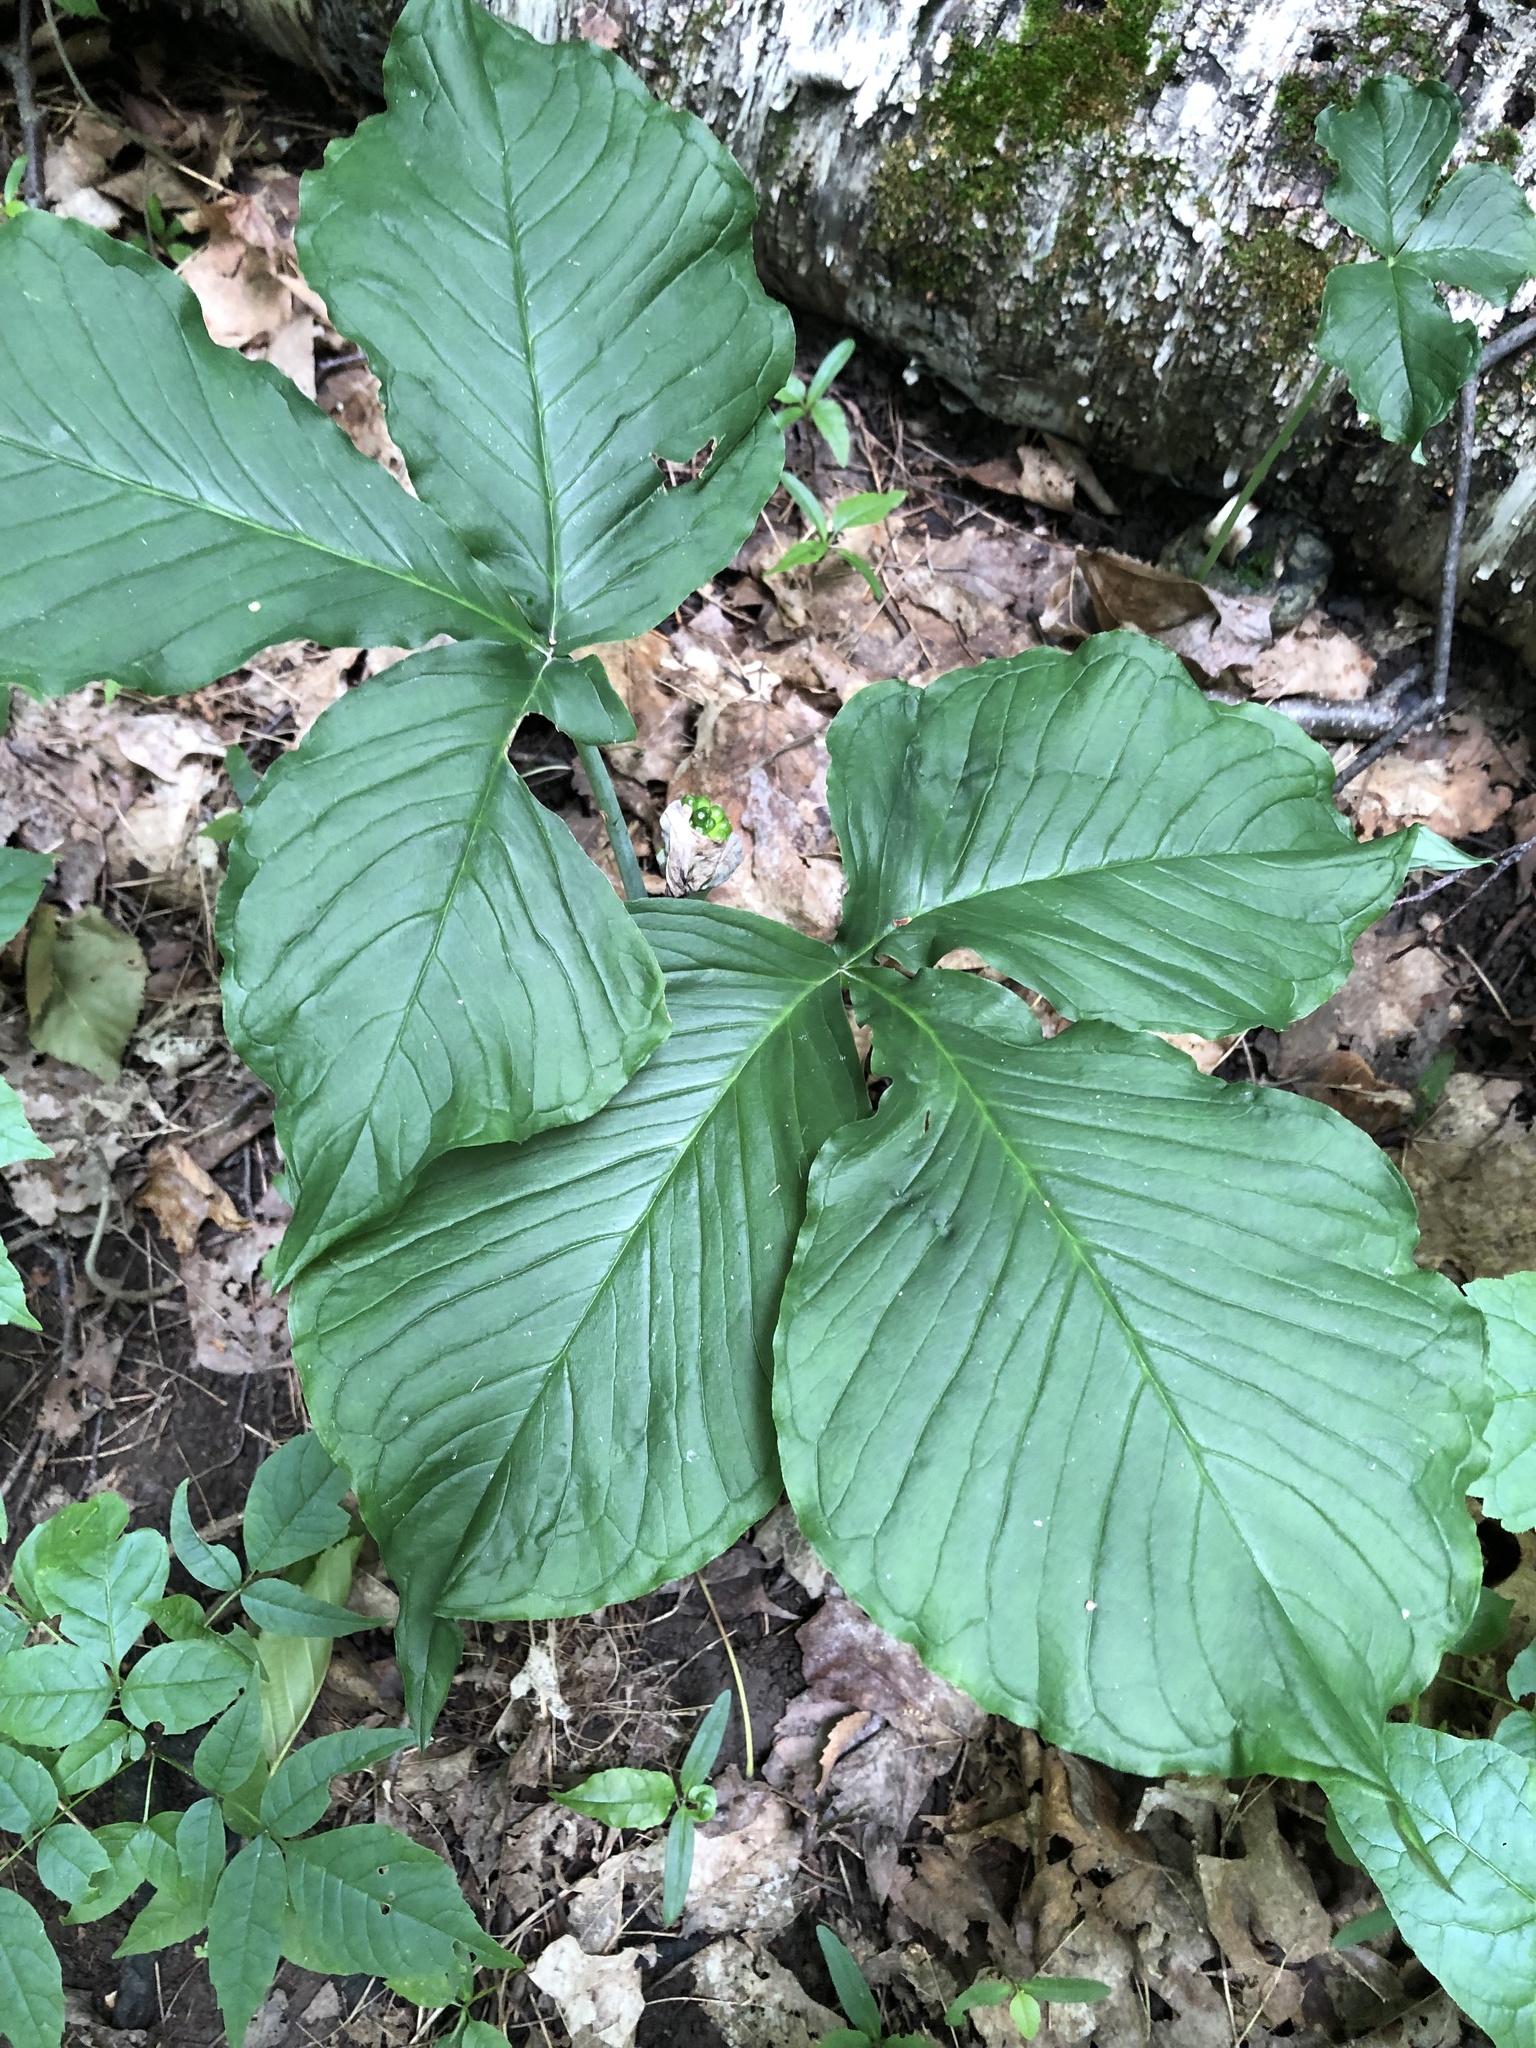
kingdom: Plantae
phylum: Tracheophyta
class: Liliopsida
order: Alismatales
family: Araceae
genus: Arisaema
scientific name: Arisaema triphyllum
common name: Jack-in-the-pulpit
